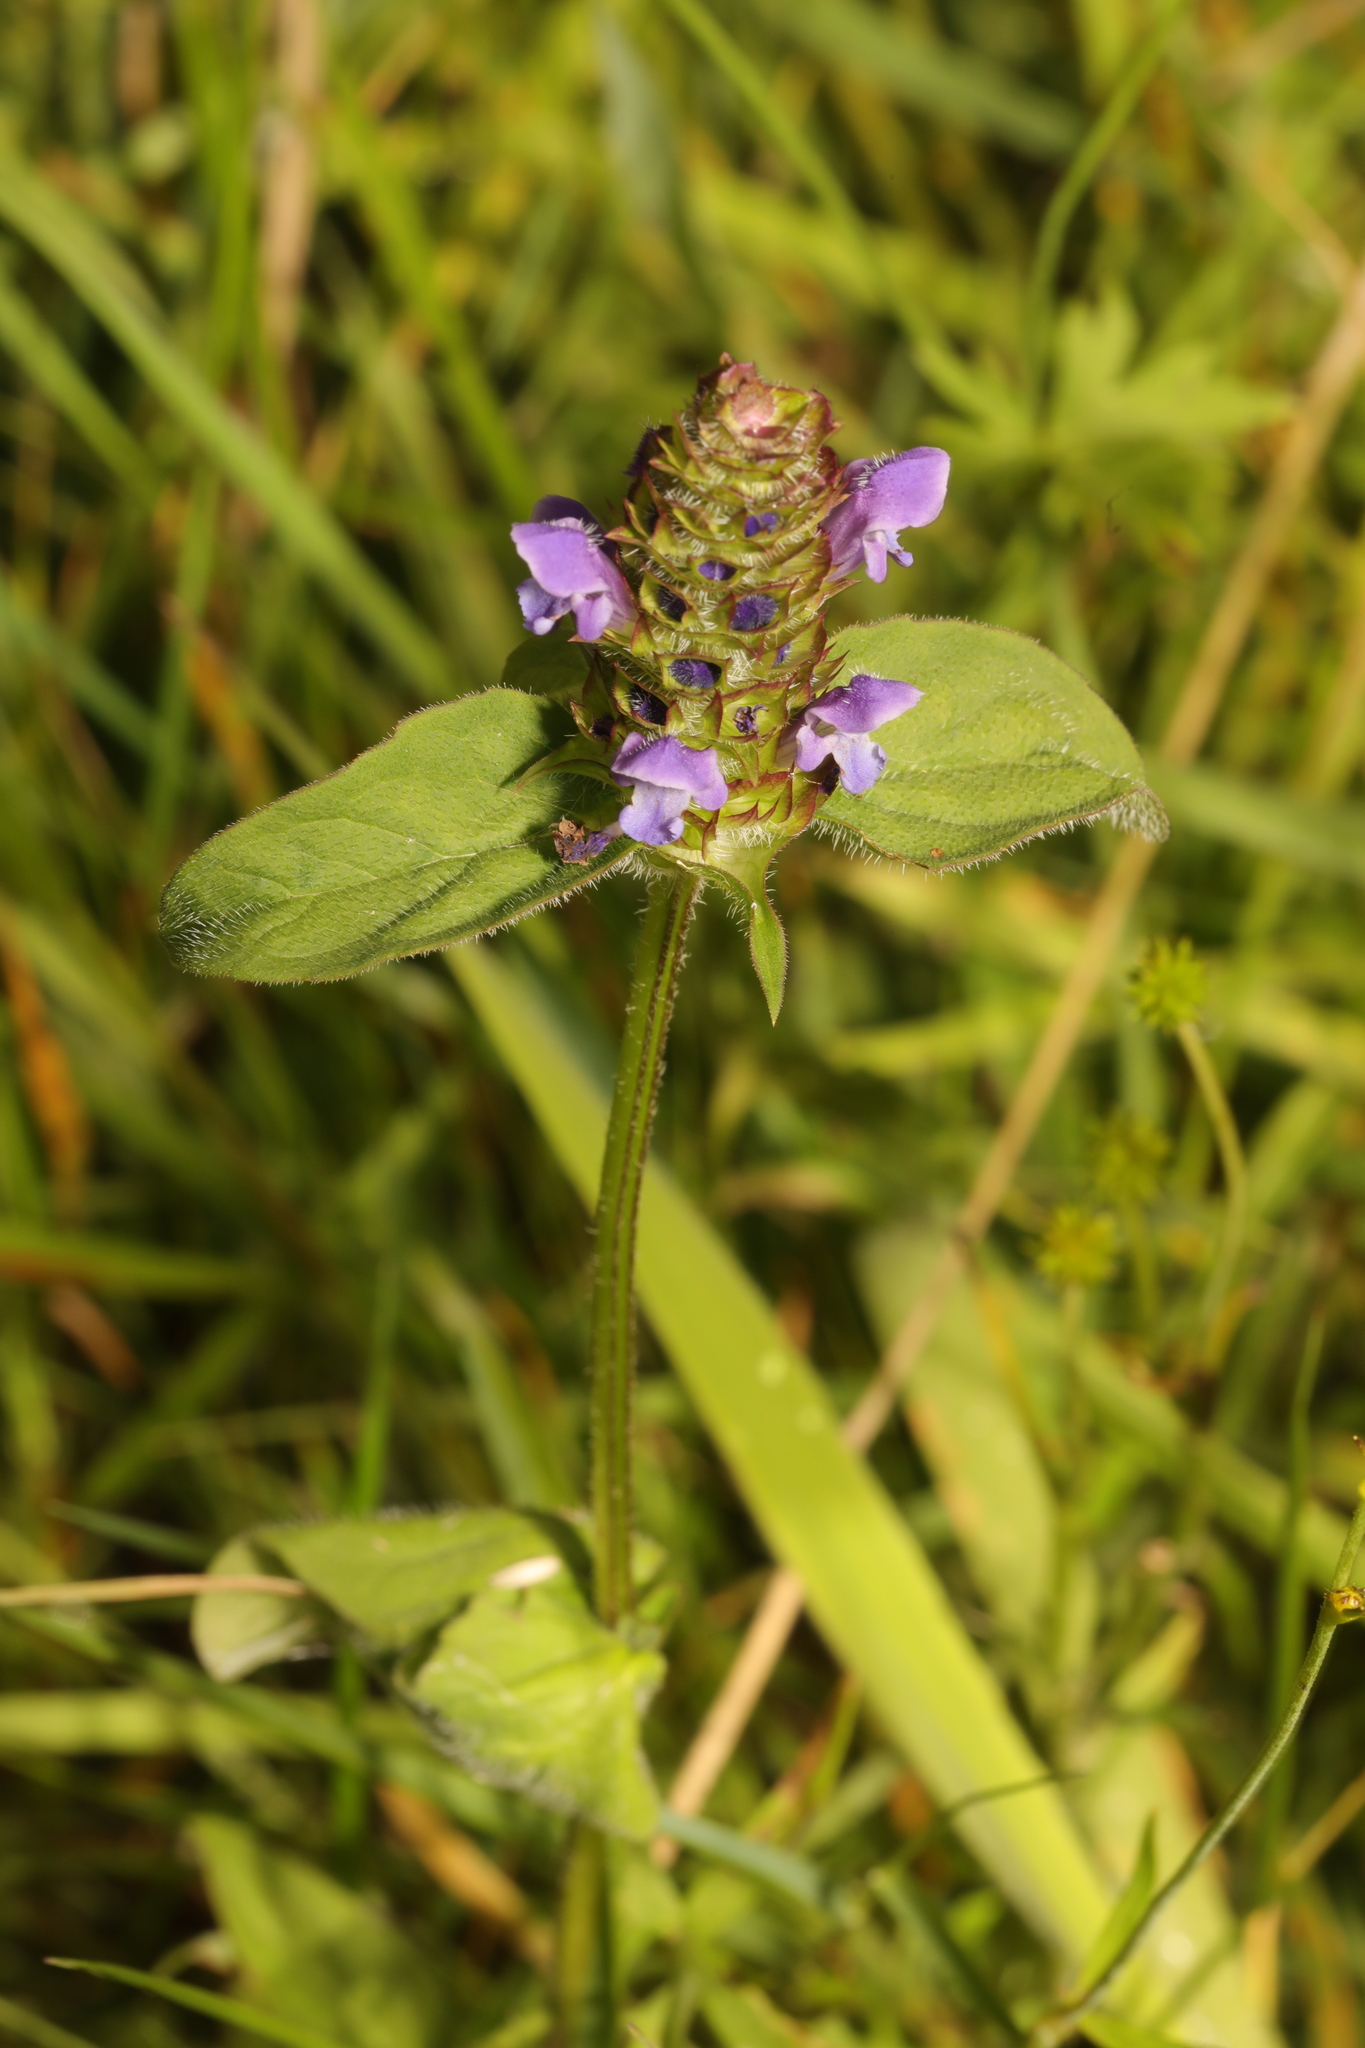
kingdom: Plantae
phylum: Tracheophyta
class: Magnoliopsida
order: Lamiales
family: Lamiaceae
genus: Prunella
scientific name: Prunella vulgaris
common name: Heal-all
